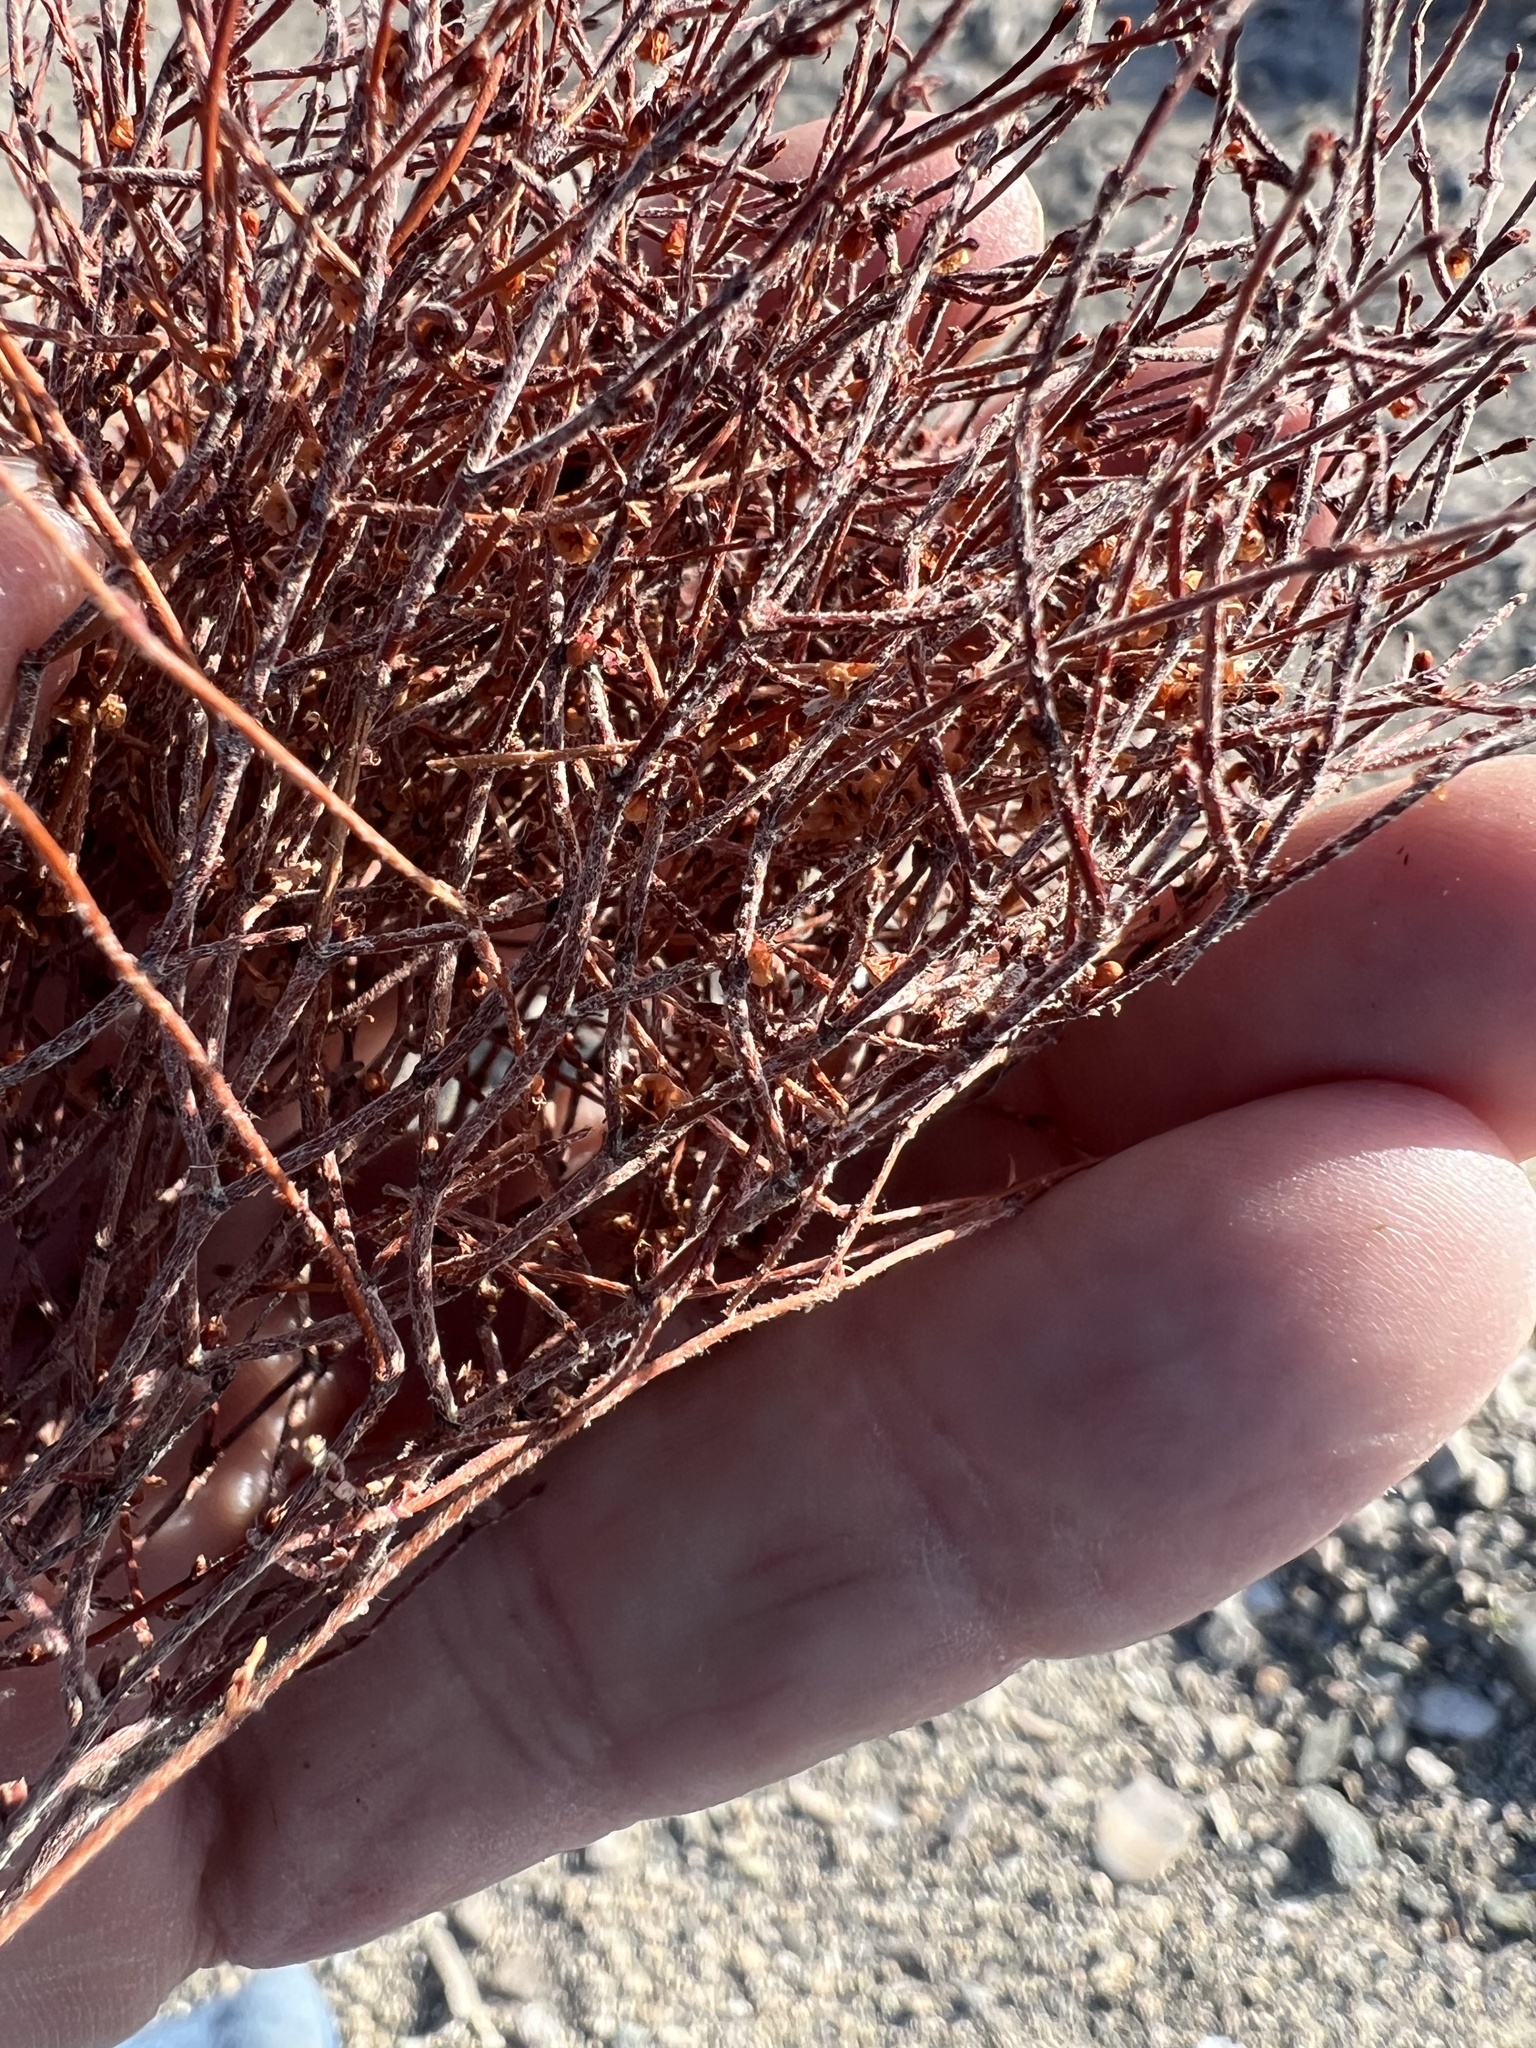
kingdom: Plantae
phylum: Tracheophyta
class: Magnoliopsida
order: Caryophyllales
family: Polygonaceae
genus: Eriogonum
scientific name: Eriogonum nidularium
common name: Bird's-nest wild buckwheat
